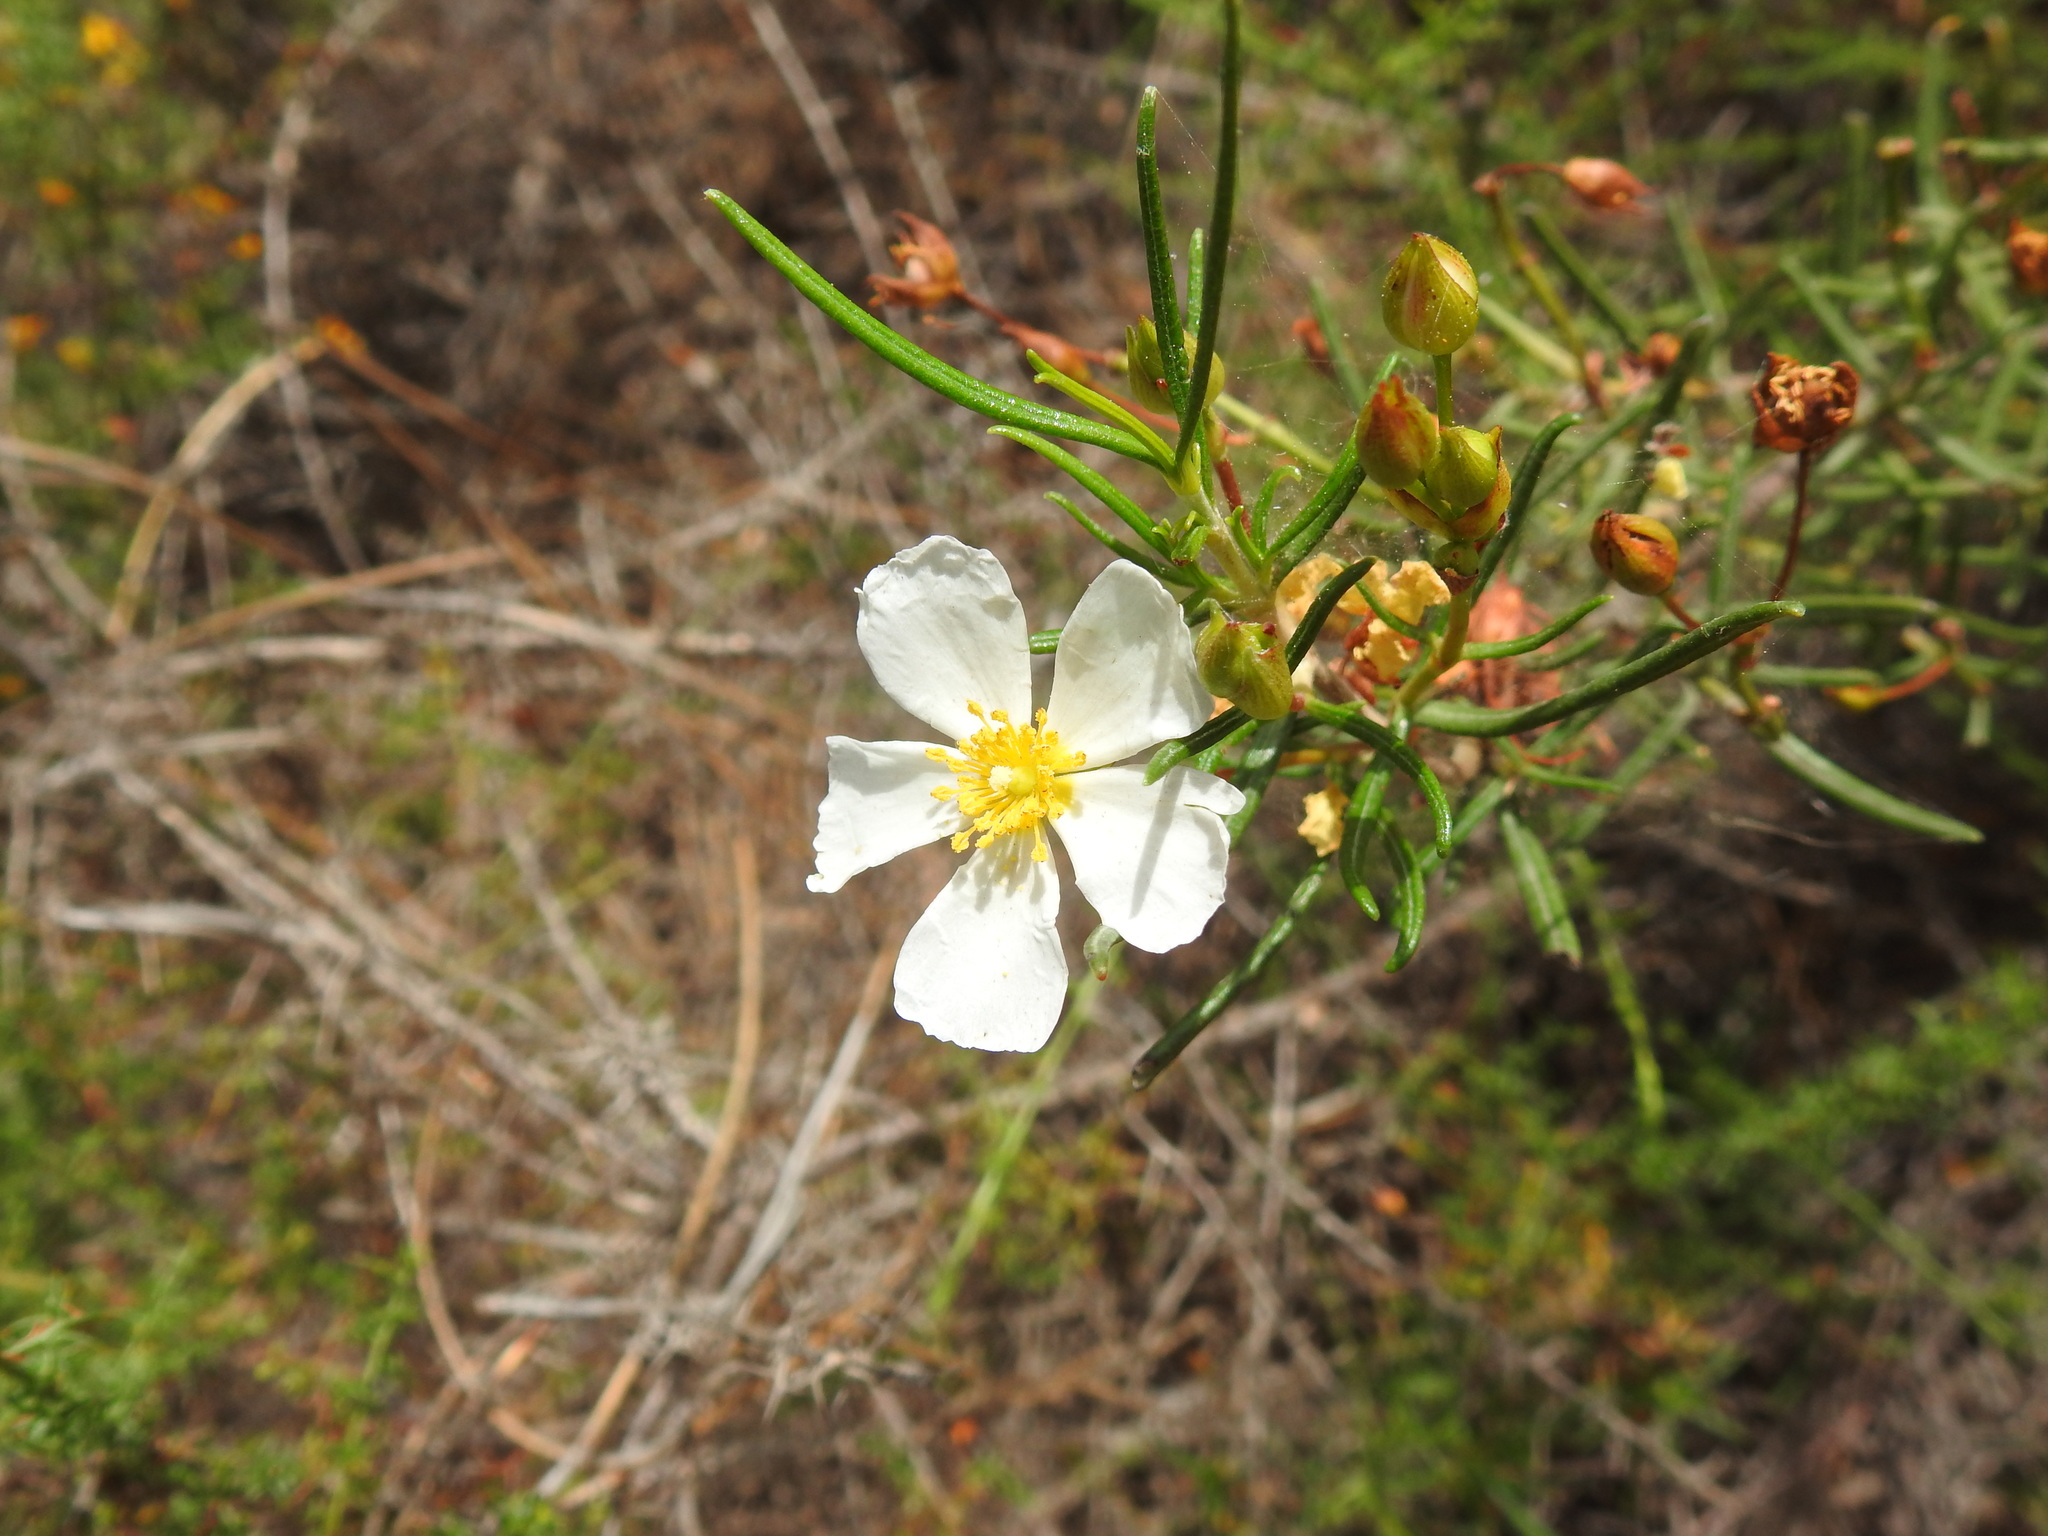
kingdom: Plantae
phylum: Tracheophyta
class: Magnoliopsida
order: Malvales
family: Cistaceae
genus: Cistus
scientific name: Cistus libanotis
